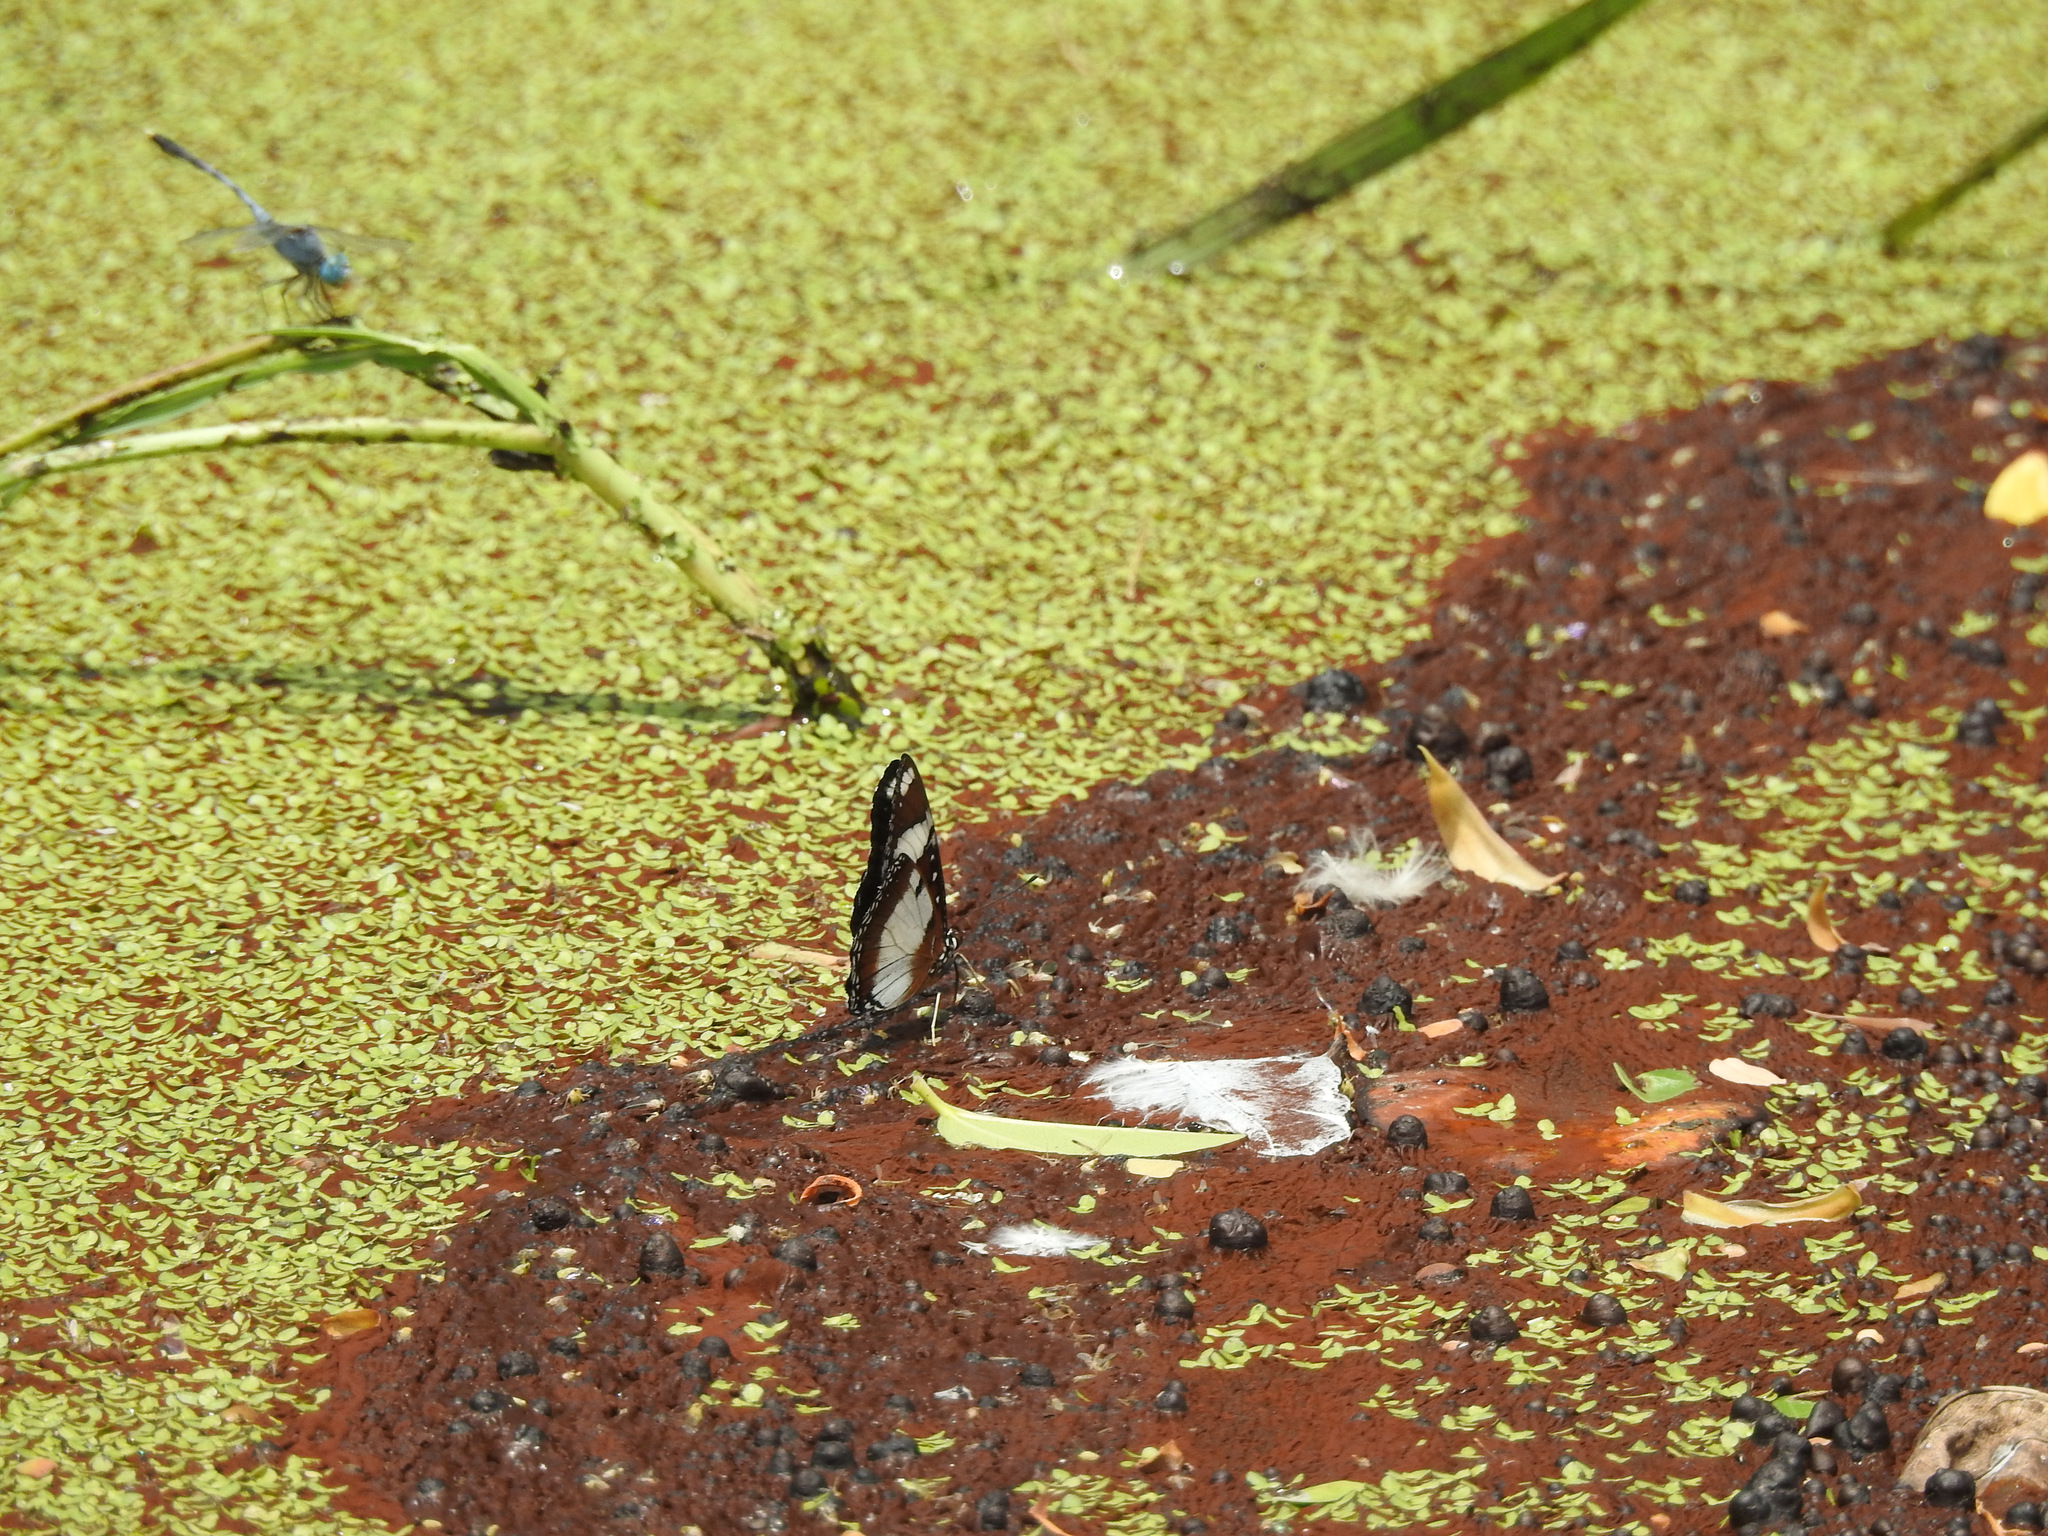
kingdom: Animalia
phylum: Arthropoda
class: Insecta
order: Lepidoptera
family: Nymphalidae
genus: Hypolimnas
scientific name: Hypolimnas misippus
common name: False plain tiger
